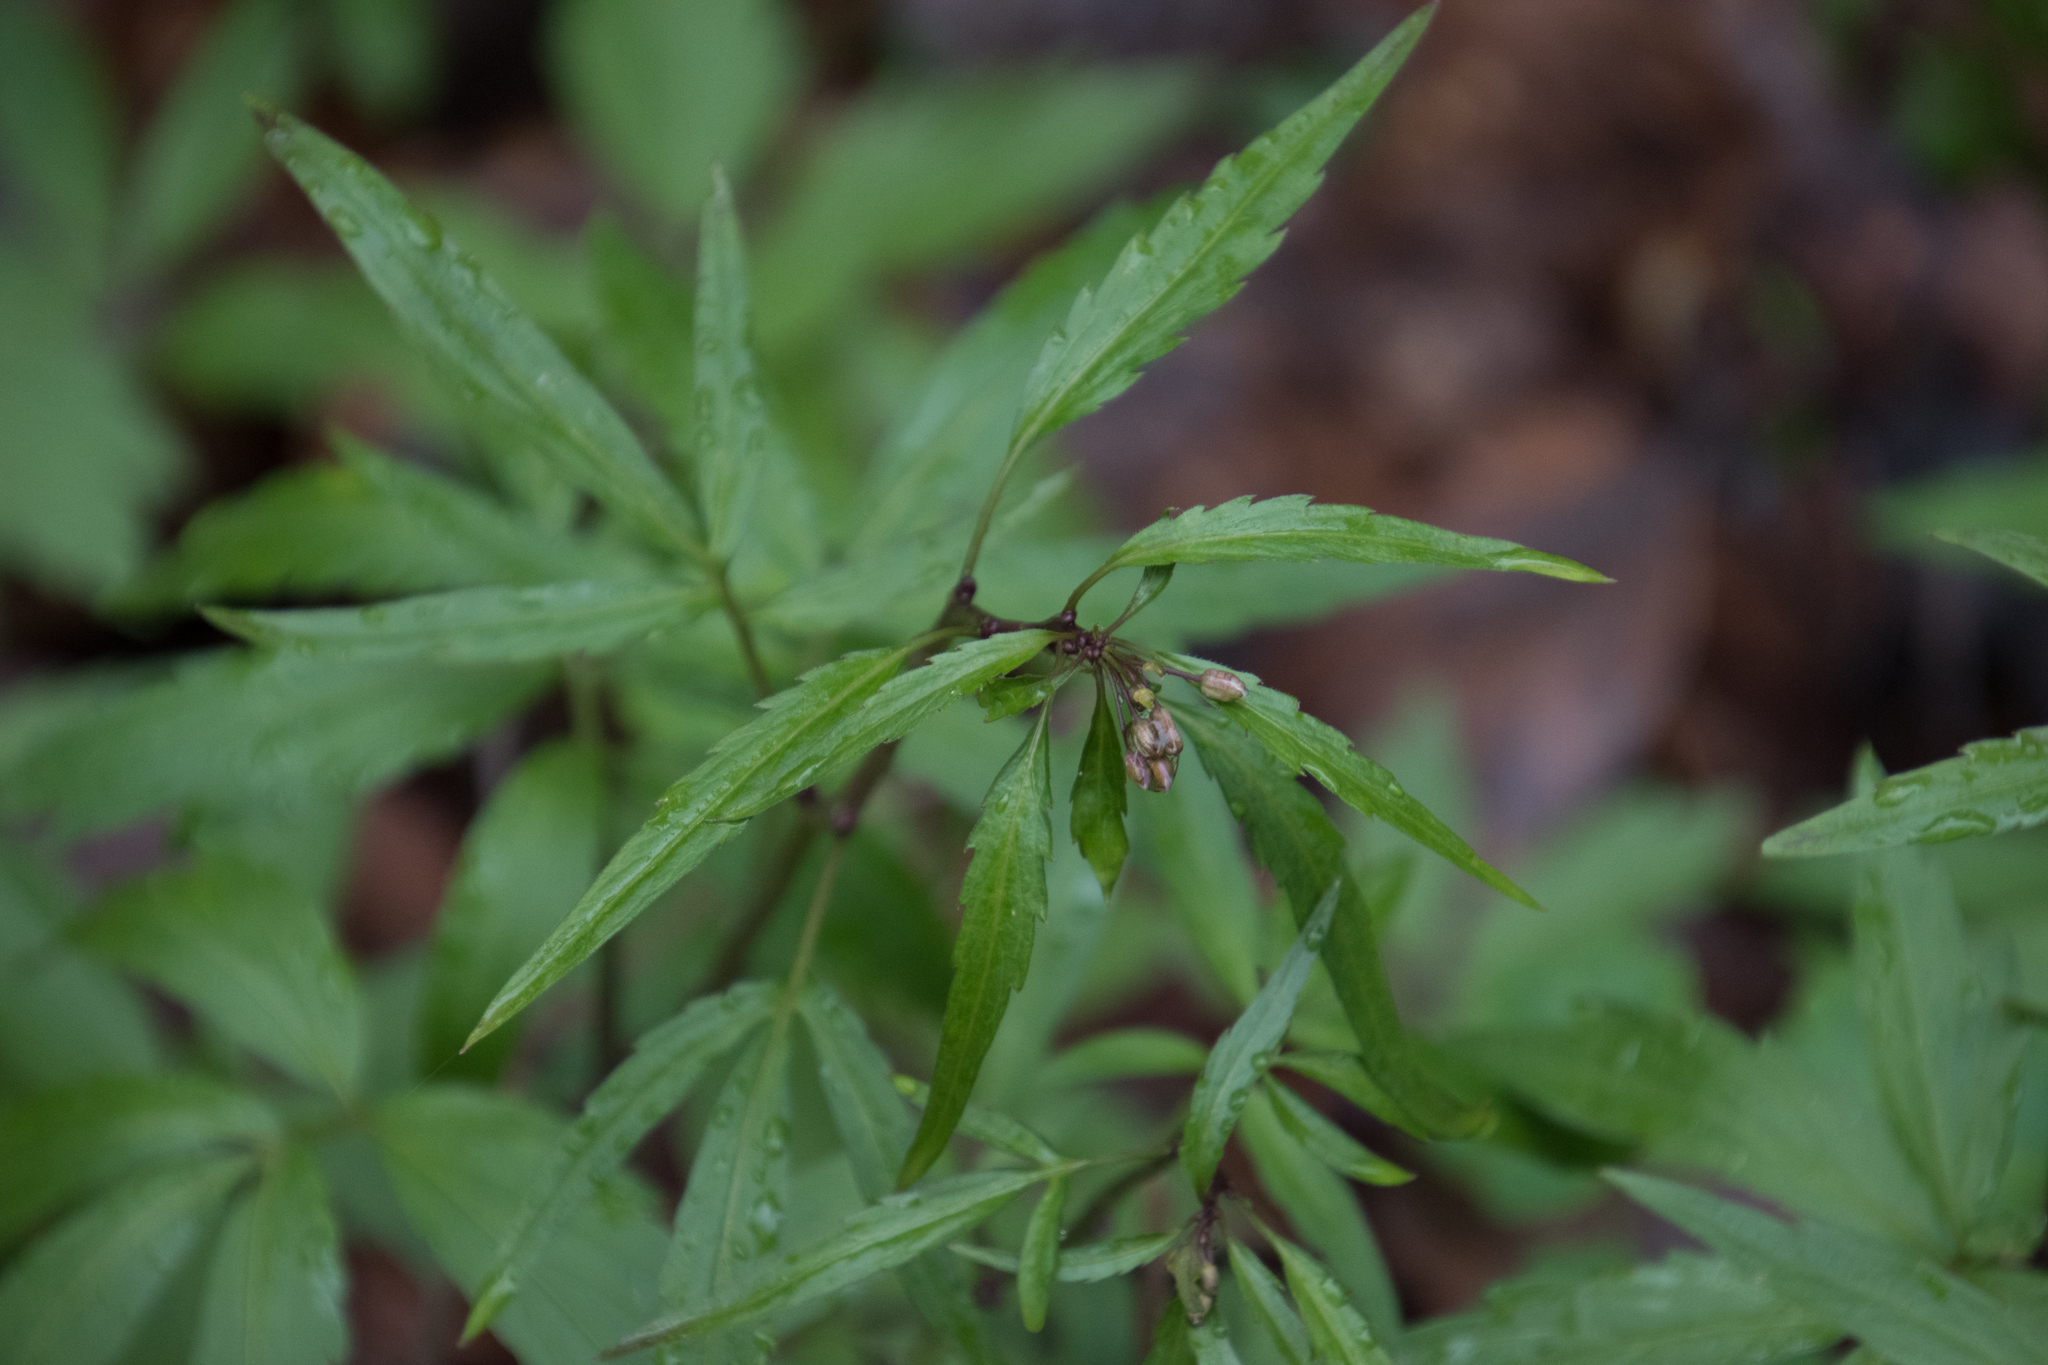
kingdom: Plantae
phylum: Tracheophyta
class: Magnoliopsida
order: Brassicales
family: Brassicaceae
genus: Cardamine
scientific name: Cardamine bulbifera
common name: Coralroot bittercress
